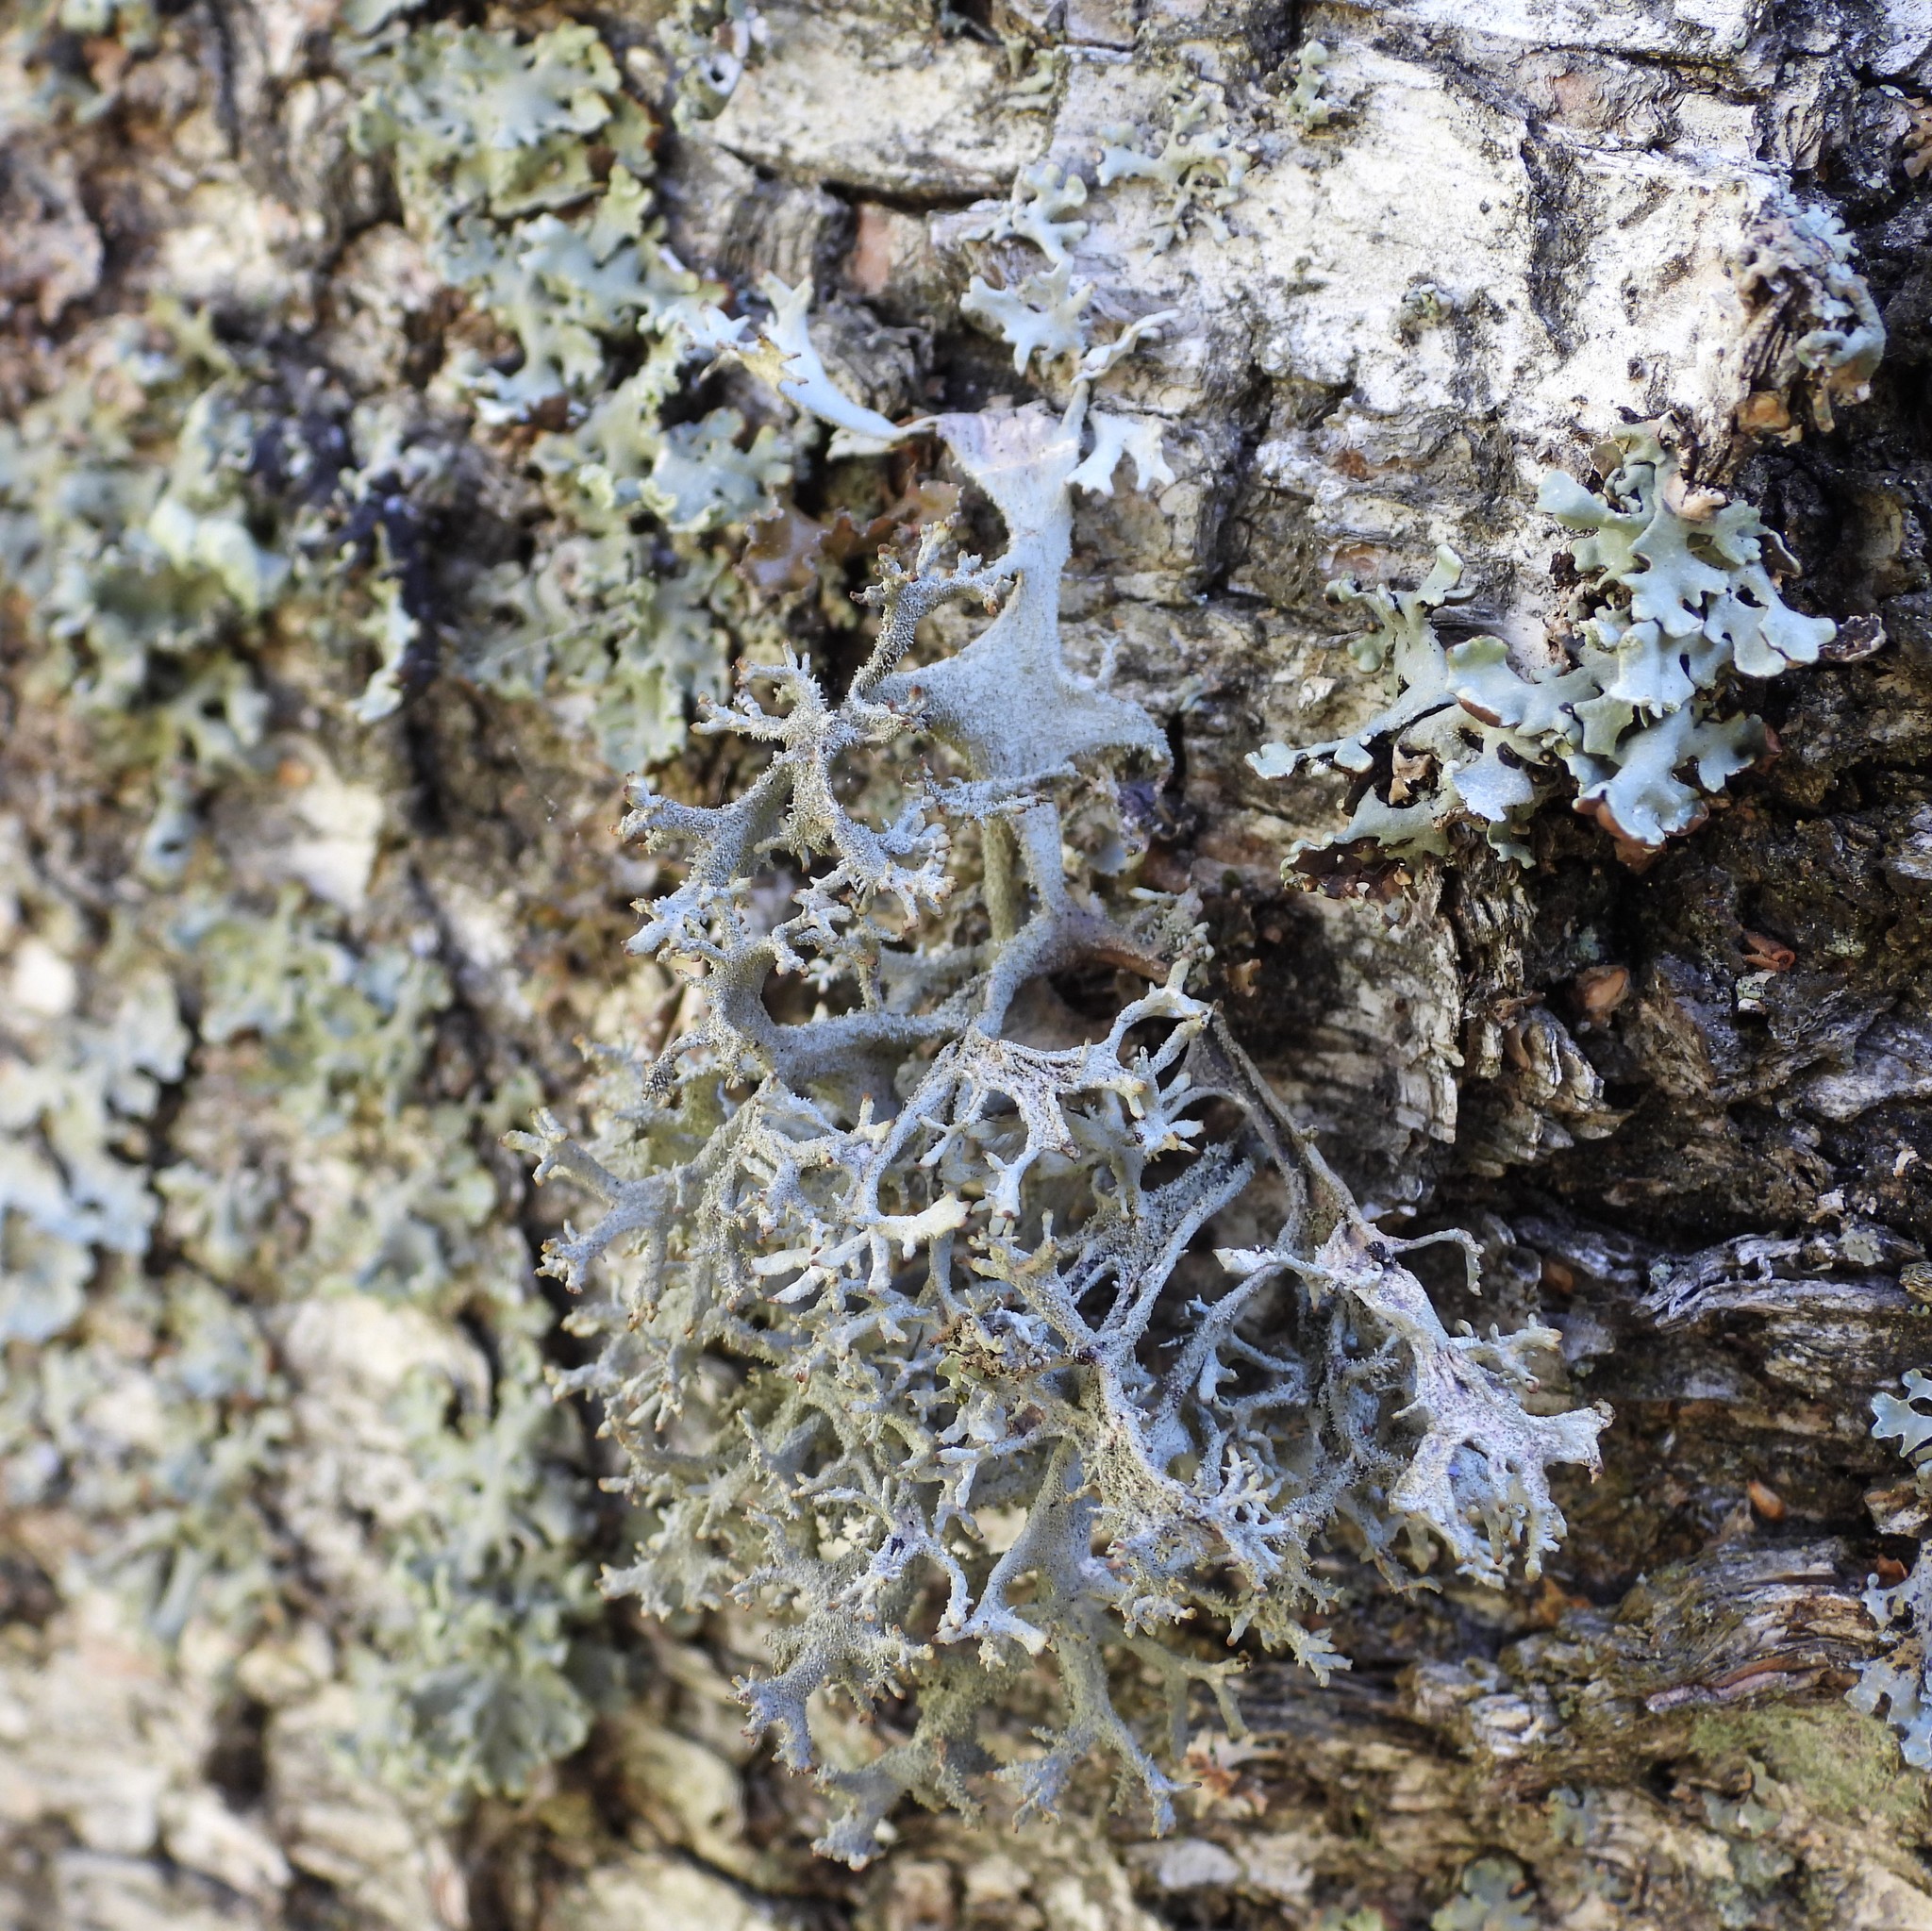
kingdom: Fungi
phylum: Ascomycota
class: Lecanoromycetes
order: Lecanorales
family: Parmeliaceae
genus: Pseudevernia
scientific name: Pseudevernia furfuracea
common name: Tree moss
